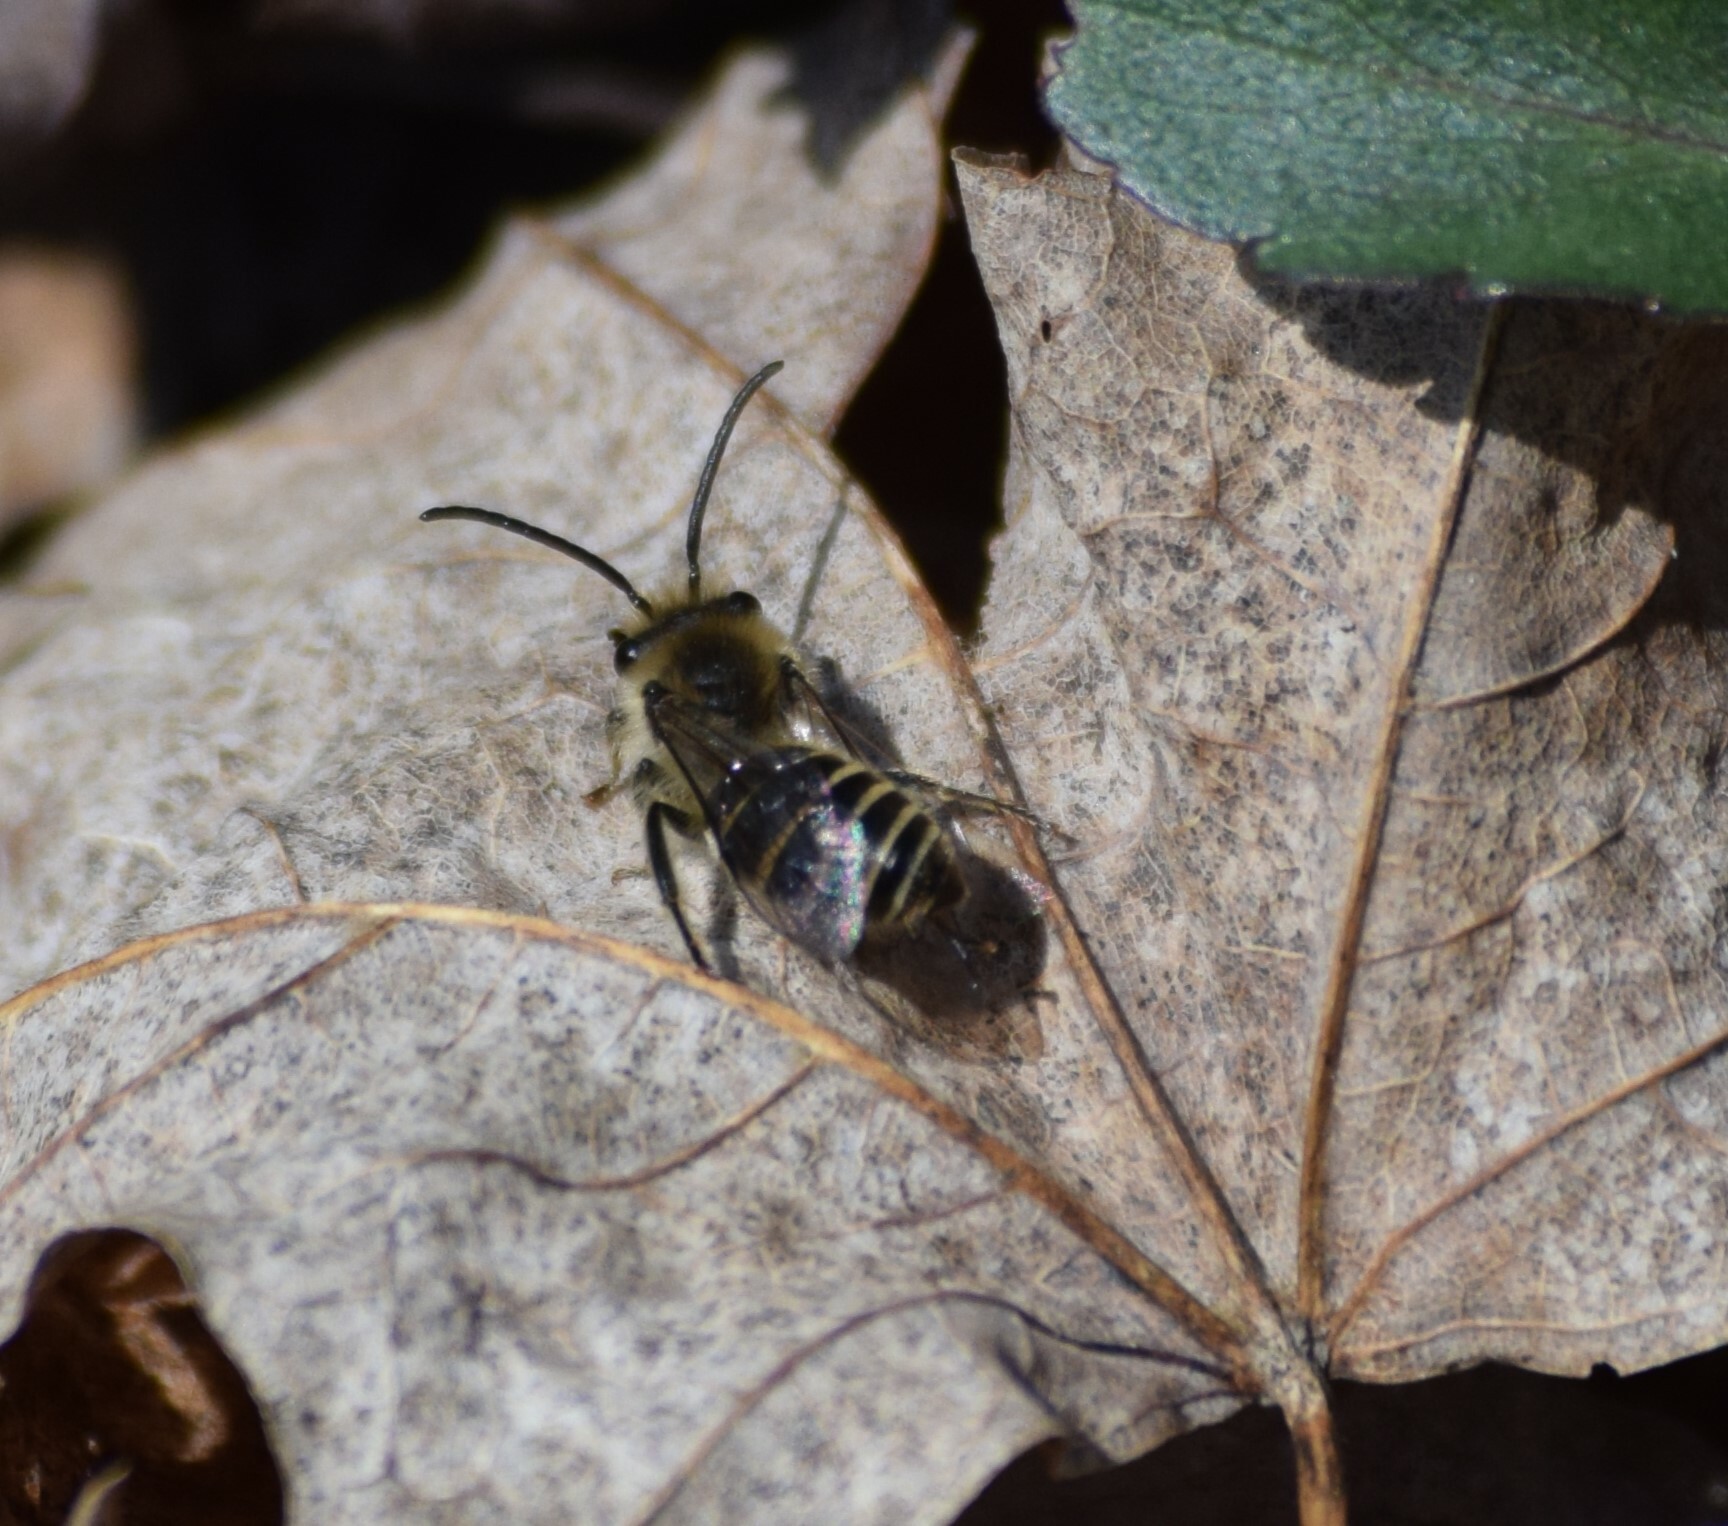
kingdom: Animalia
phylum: Arthropoda
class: Insecta
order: Hymenoptera
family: Colletidae
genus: Colletes
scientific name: Colletes inaequalis
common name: Unequal cellophane bee
